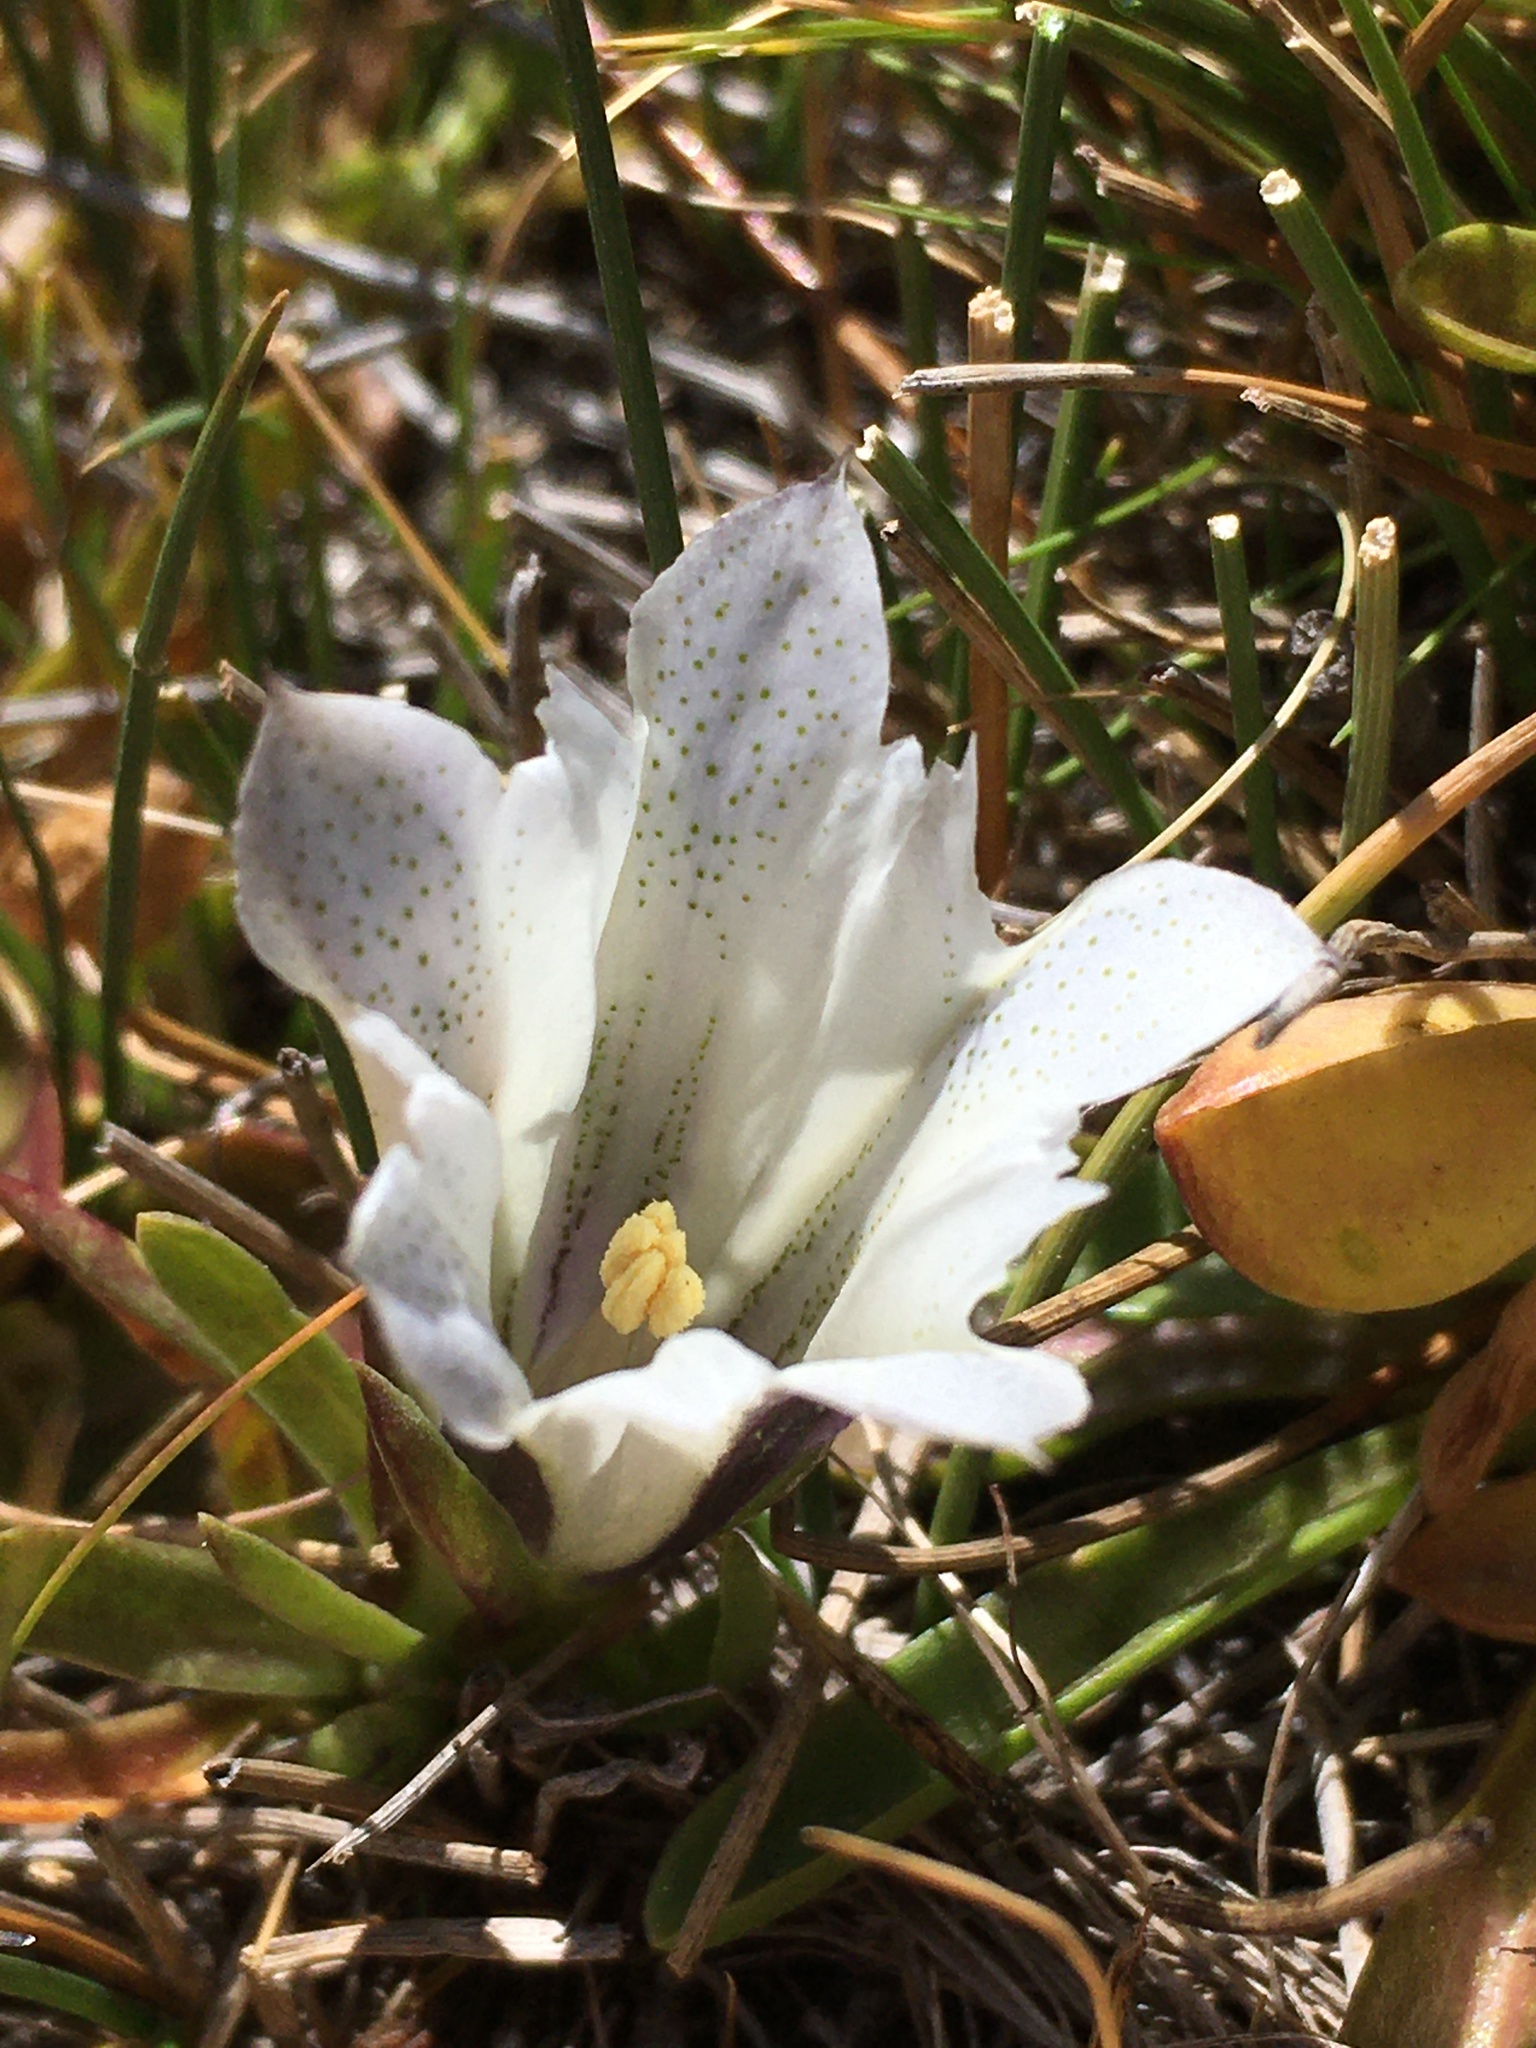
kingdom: Plantae
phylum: Tracheophyta
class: Magnoliopsida
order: Gentianales
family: Gentianaceae
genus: Gentiana
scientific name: Gentiana newberryi
